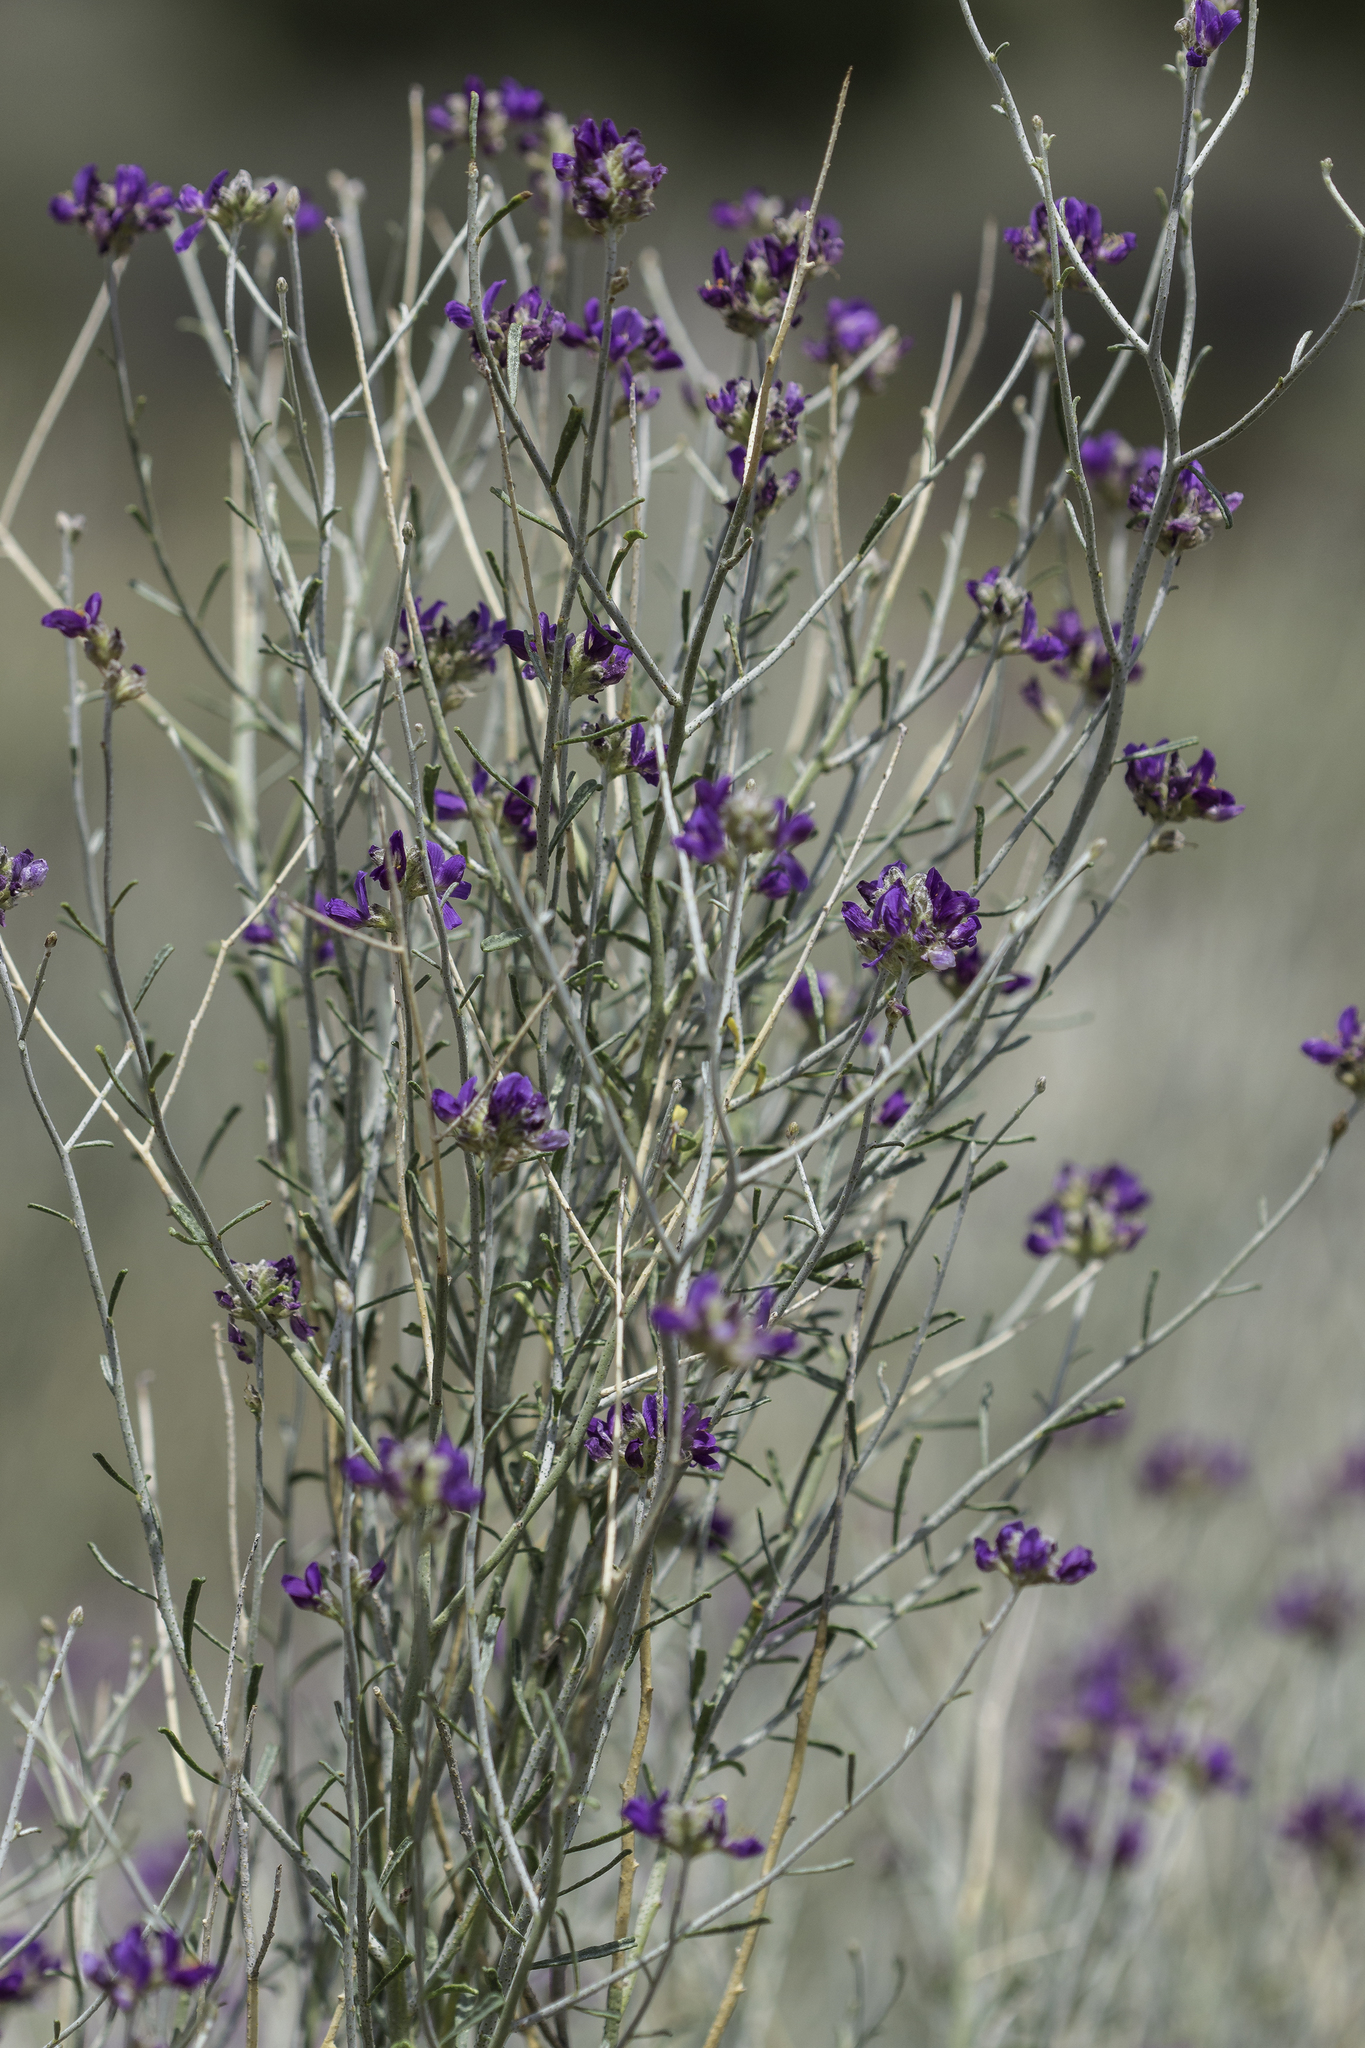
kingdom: Plantae
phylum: Tracheophyta
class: Magnoliopsida
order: Fabales
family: Fabaceae
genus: Psorothamnus
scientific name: Psorothamnus scoparius
